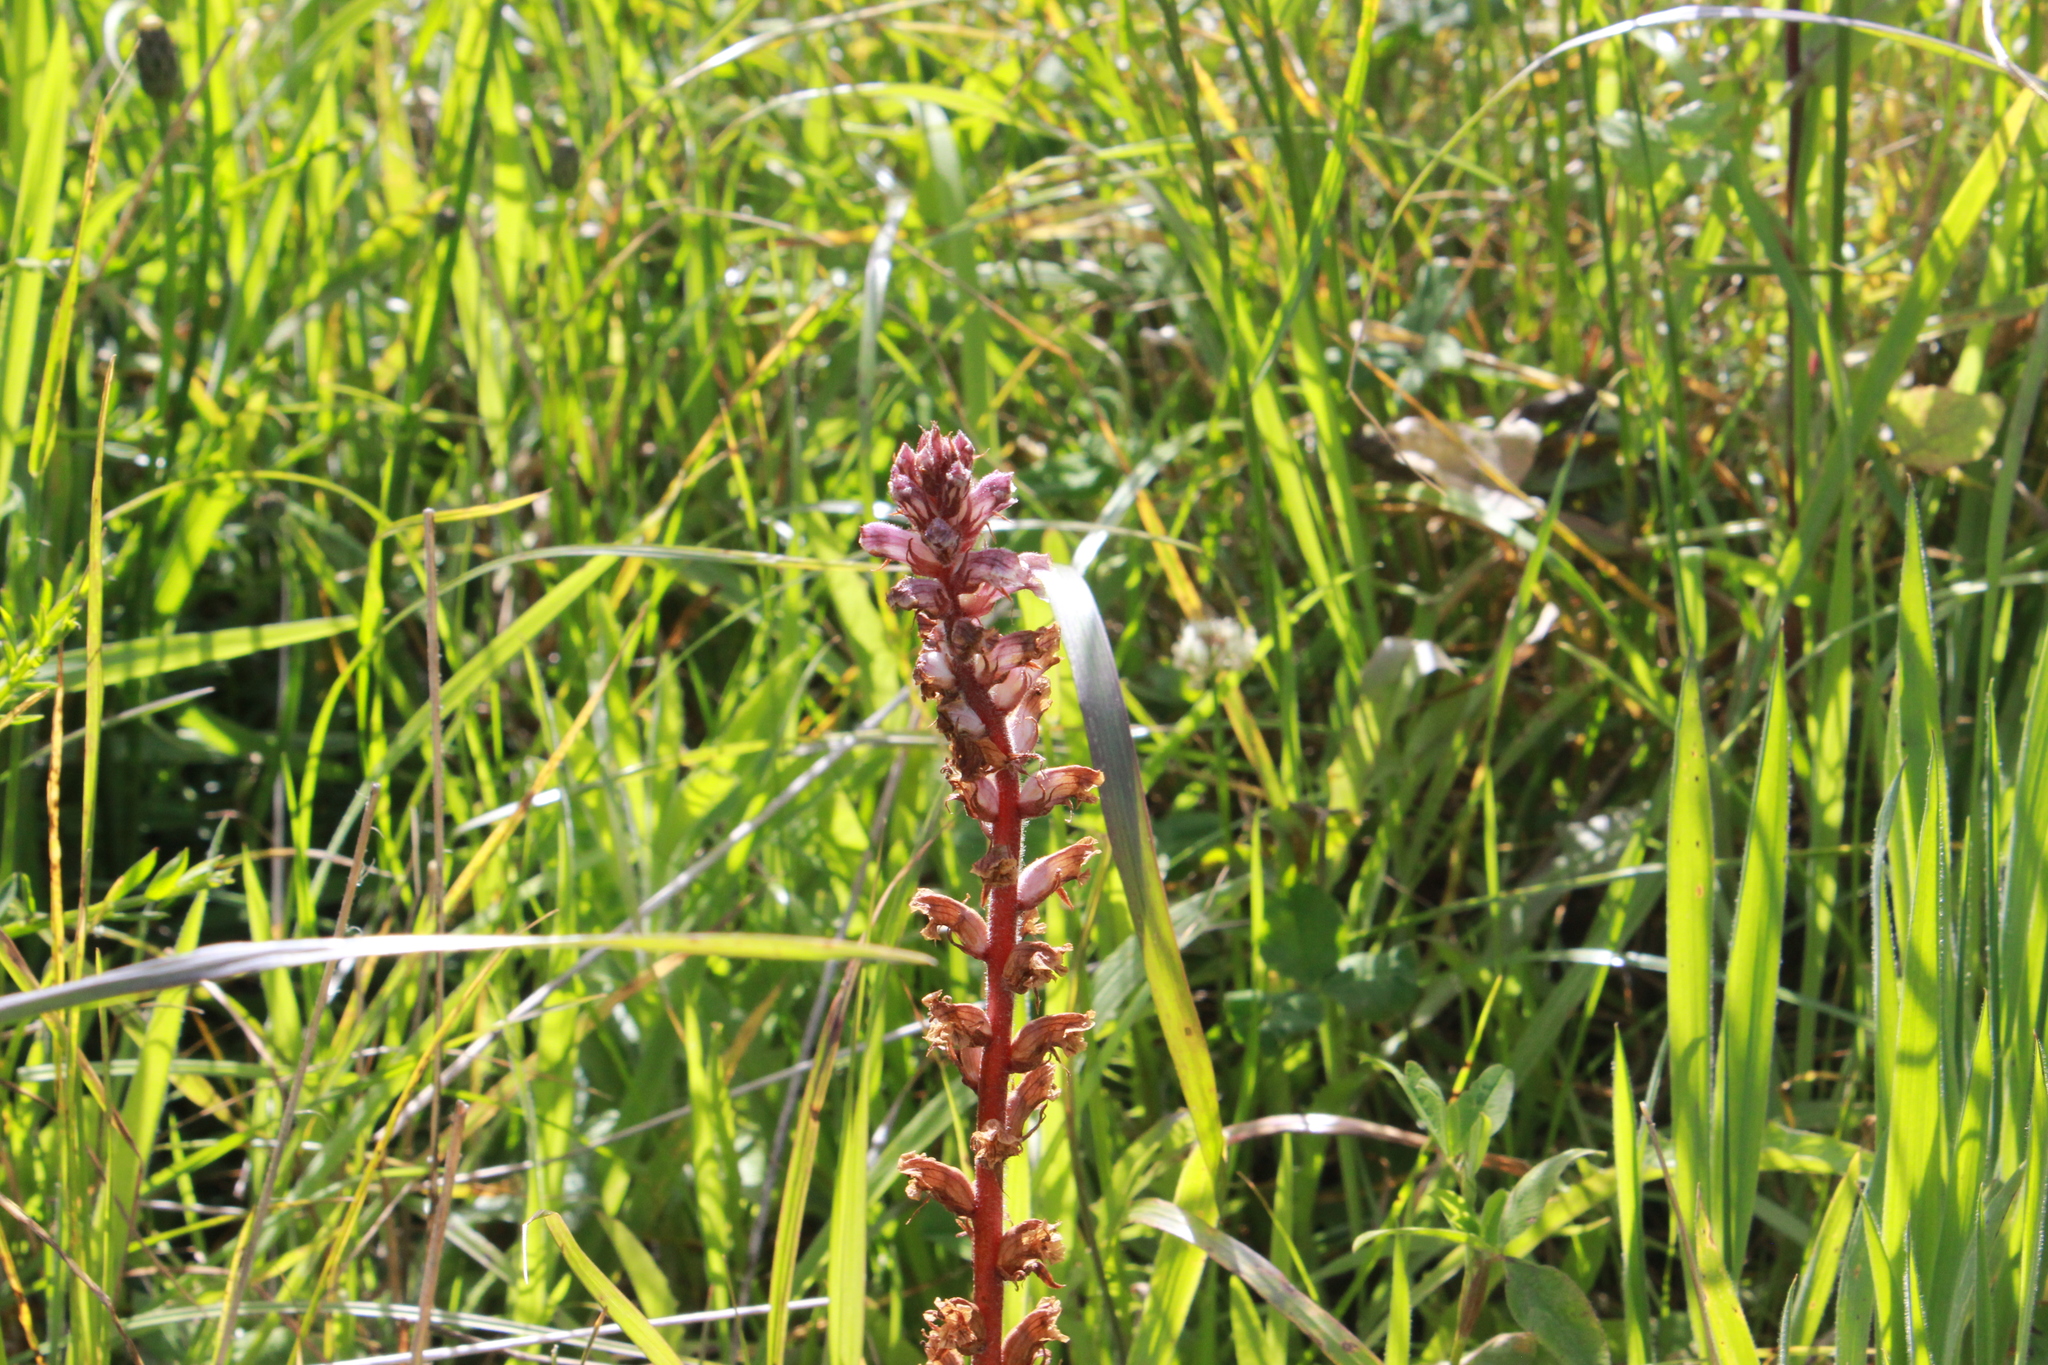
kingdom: Plantae
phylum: Tracheophyta
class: Magnoliopsida
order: Lamiales
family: Orobanchaceae
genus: Orobanche
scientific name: Orobanche minor
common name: Common broomrape
